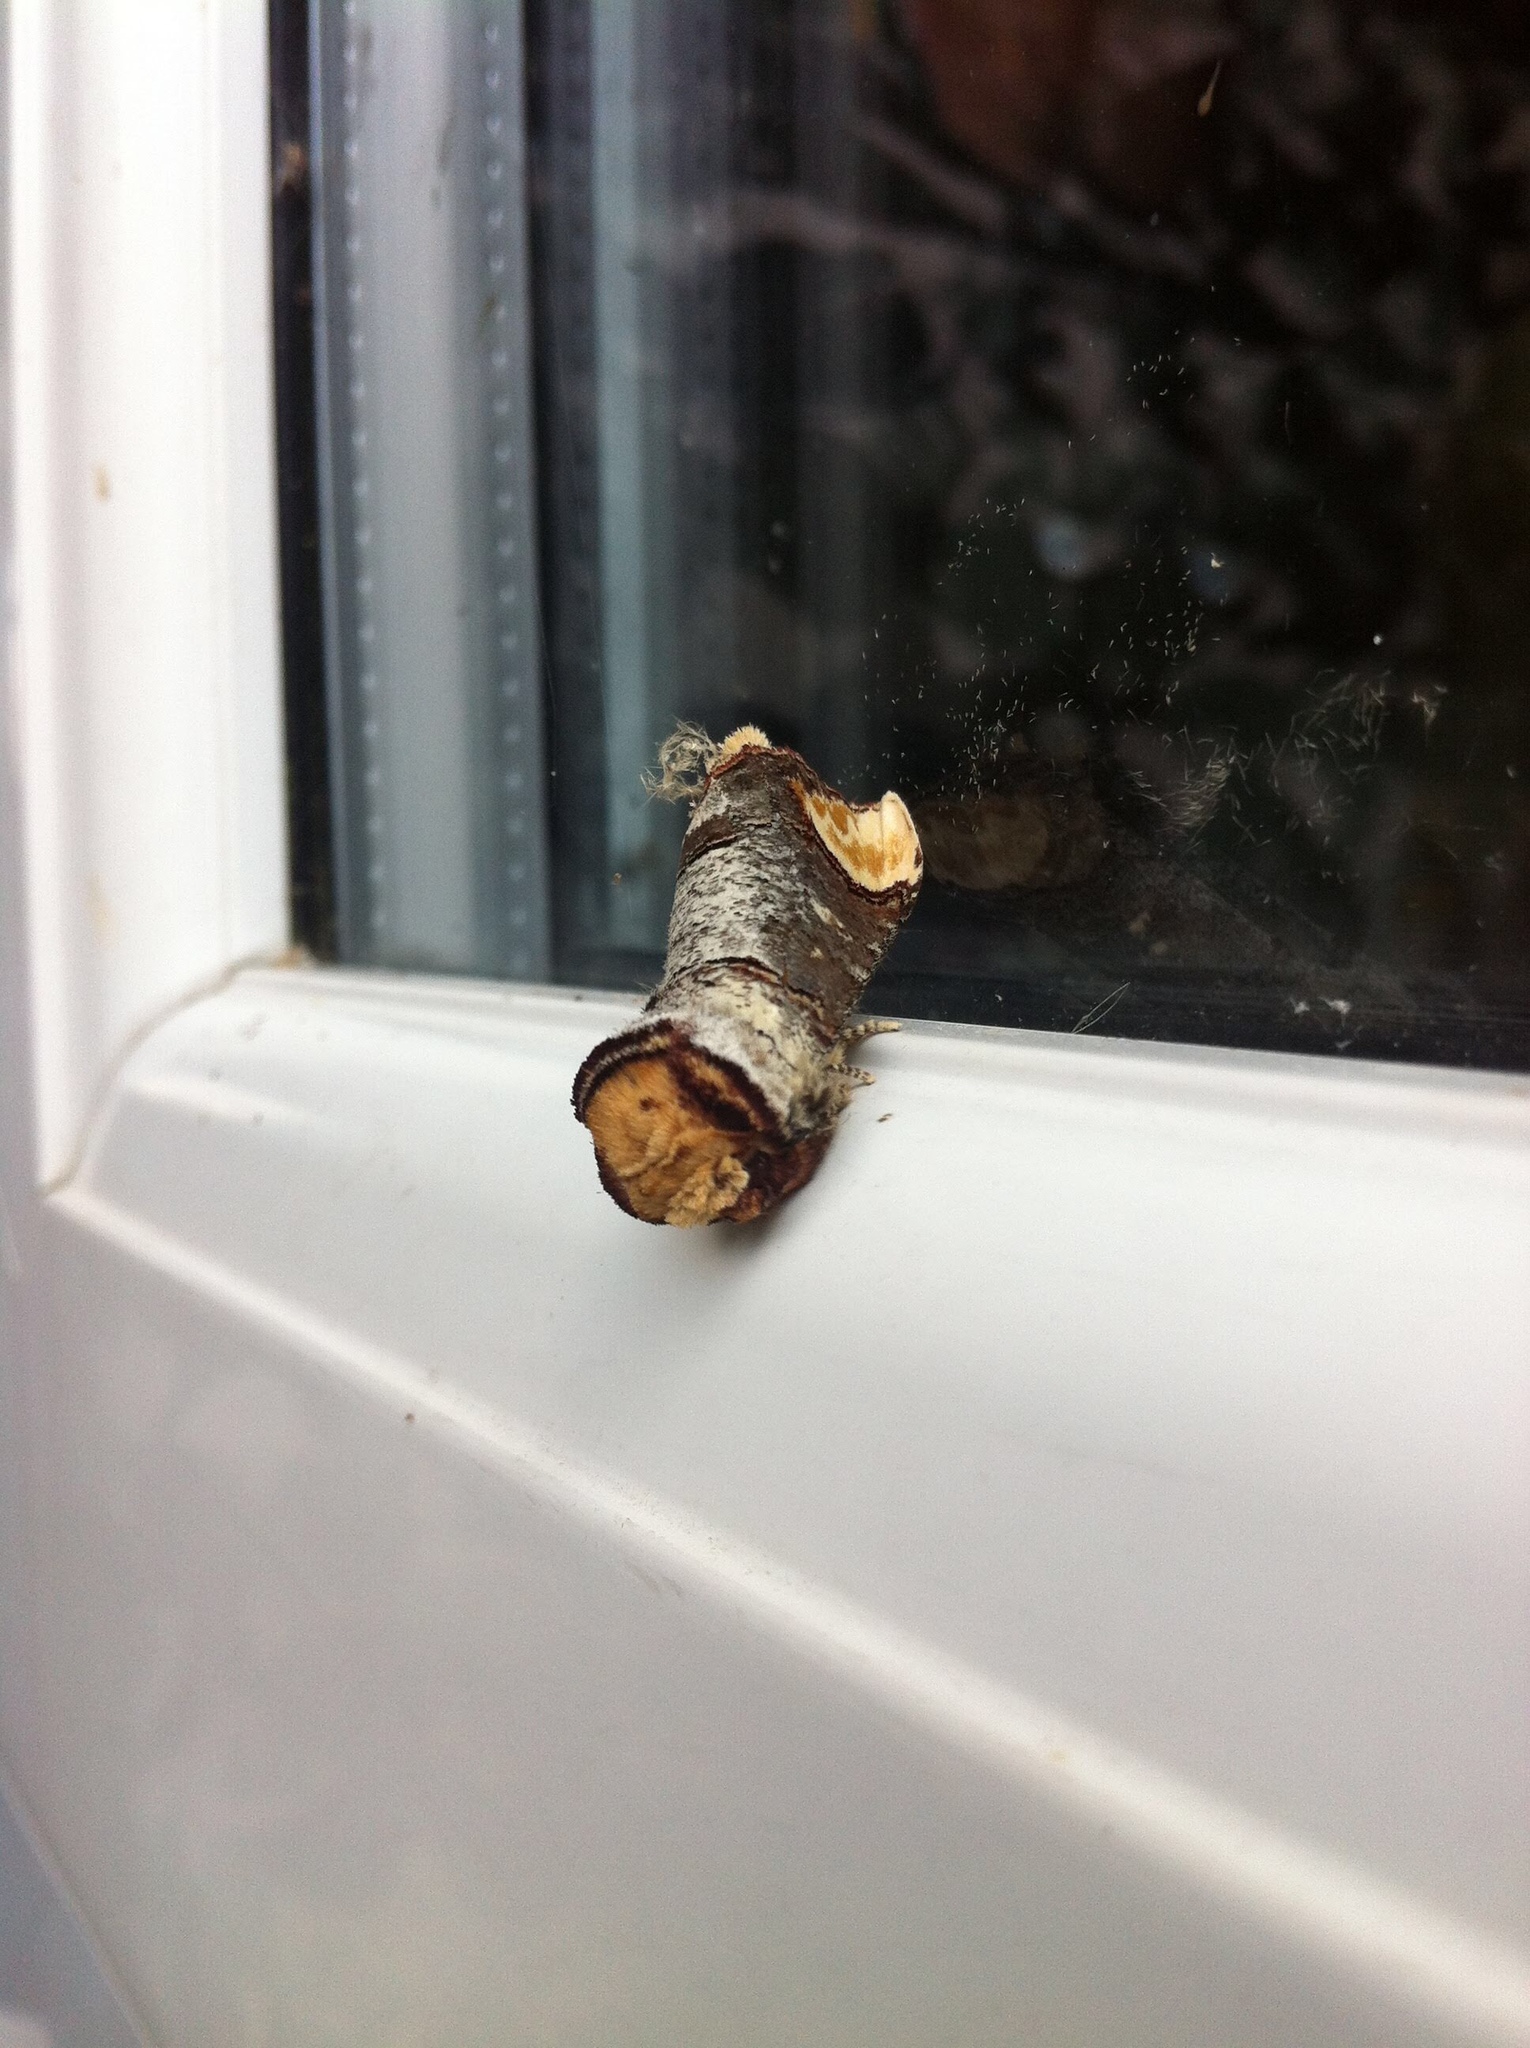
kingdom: Animalia
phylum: Arthropoda
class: Insecta
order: Lepidoptera
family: Notodontidae
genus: Phalera
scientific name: Phalera bucephala
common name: Buff-tip
